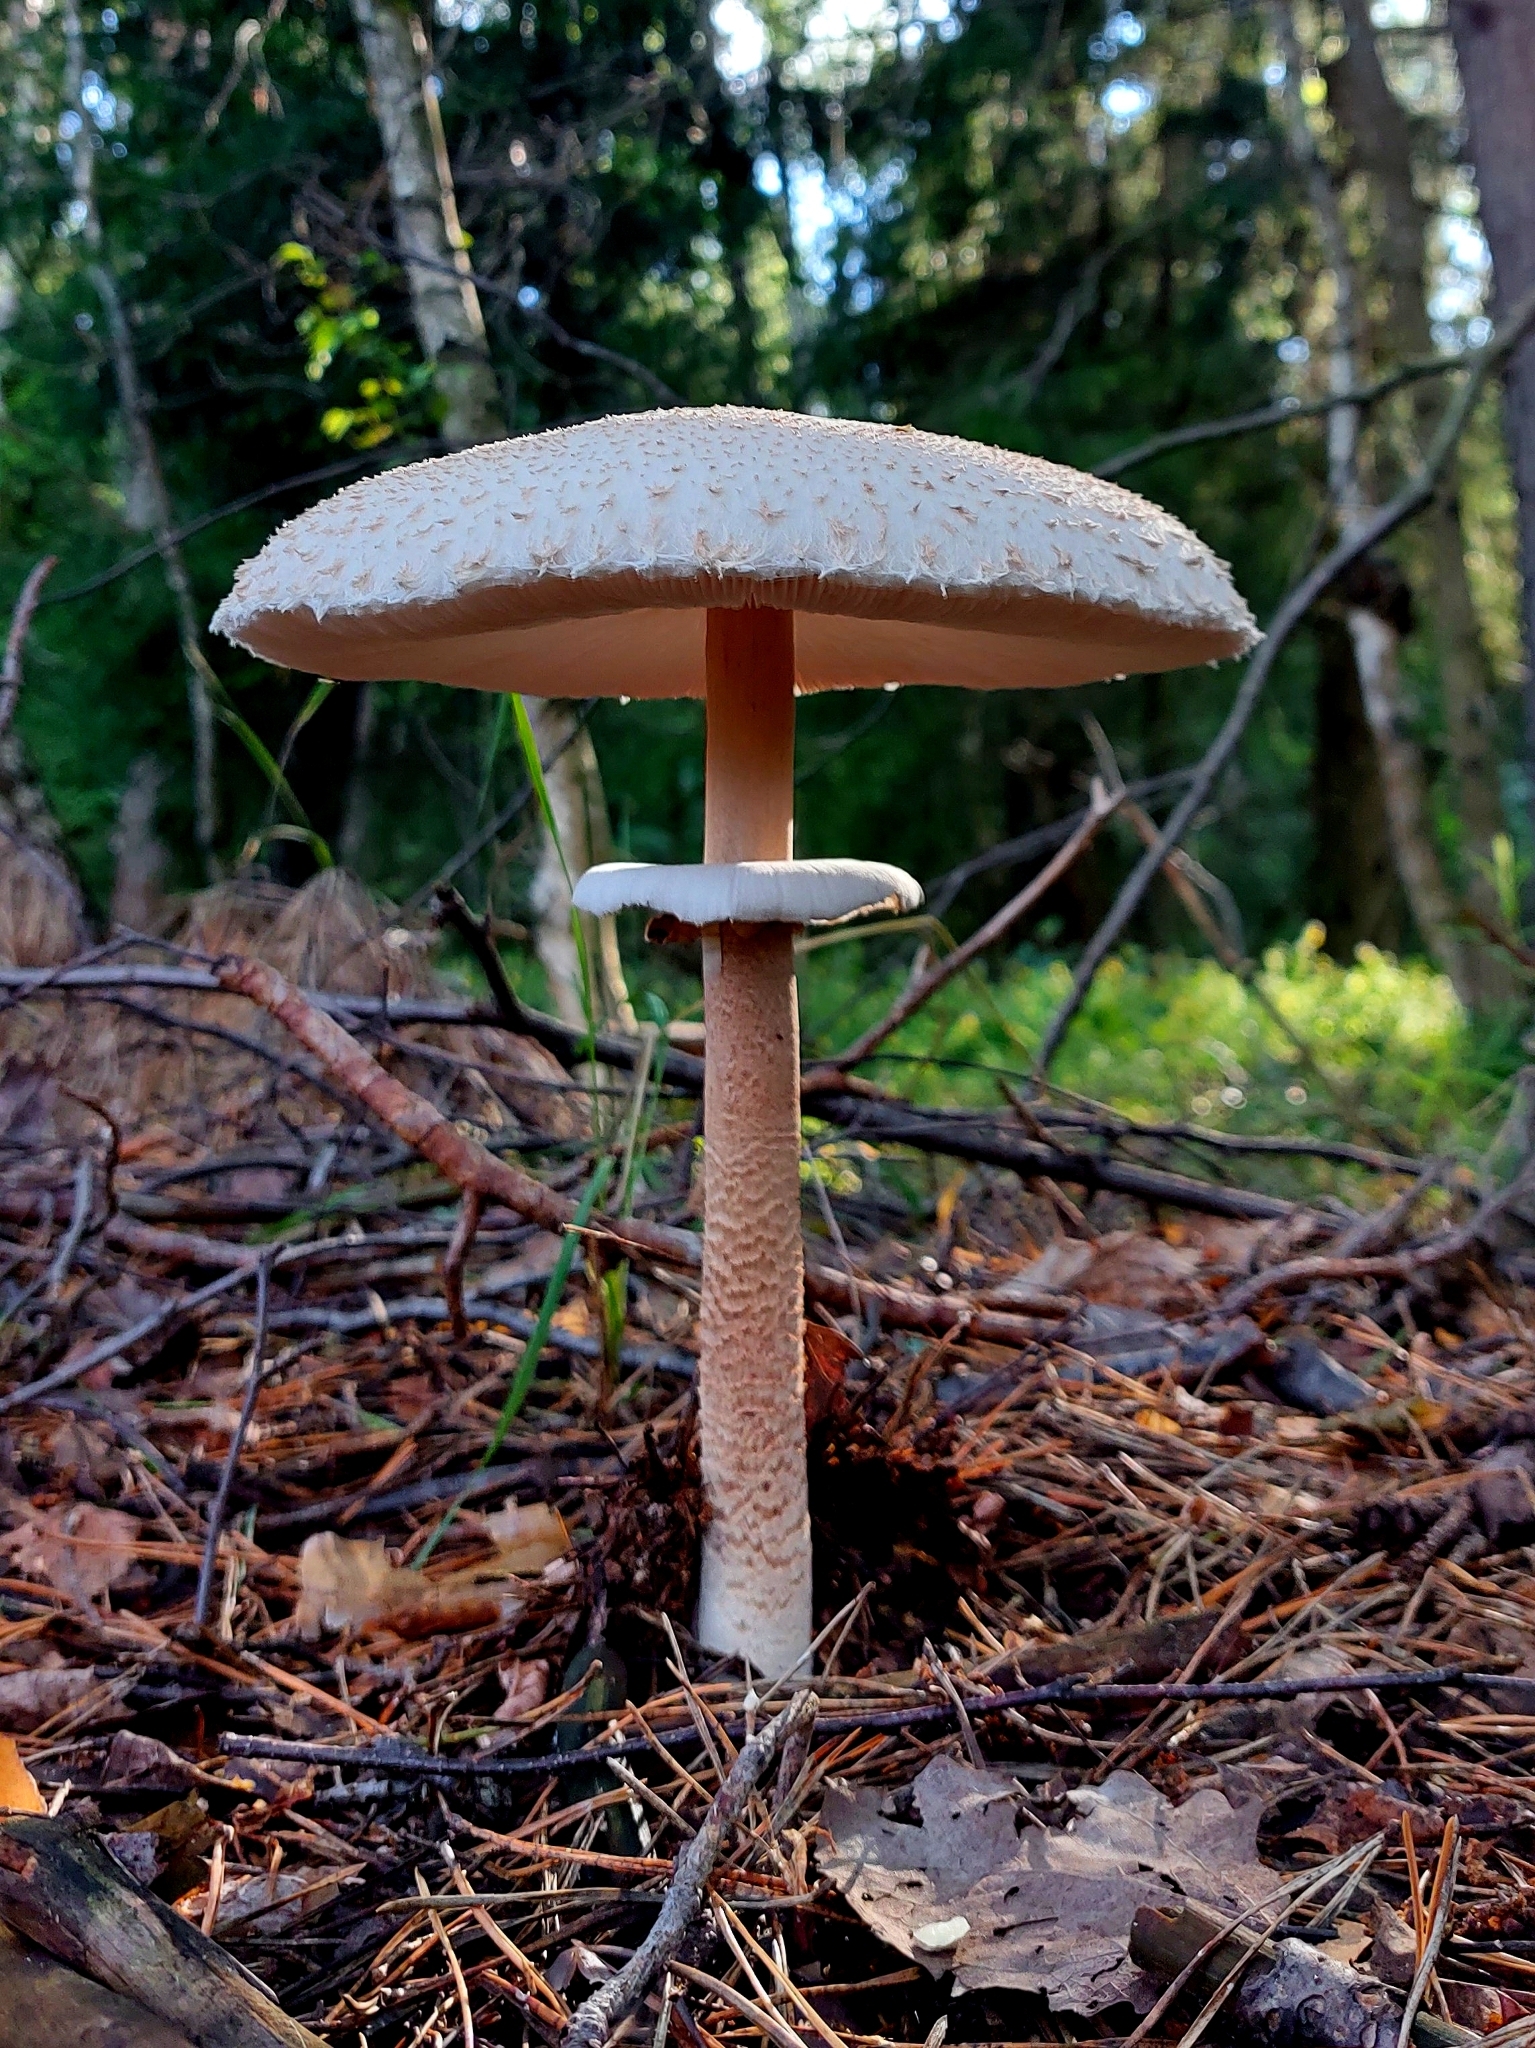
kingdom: Fungi
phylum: Basidiomycota
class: Agaricomycetes
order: Agaricales
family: Agaricaceae
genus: Macrolepiota
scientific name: Macrolepiota procera
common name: Parasol
